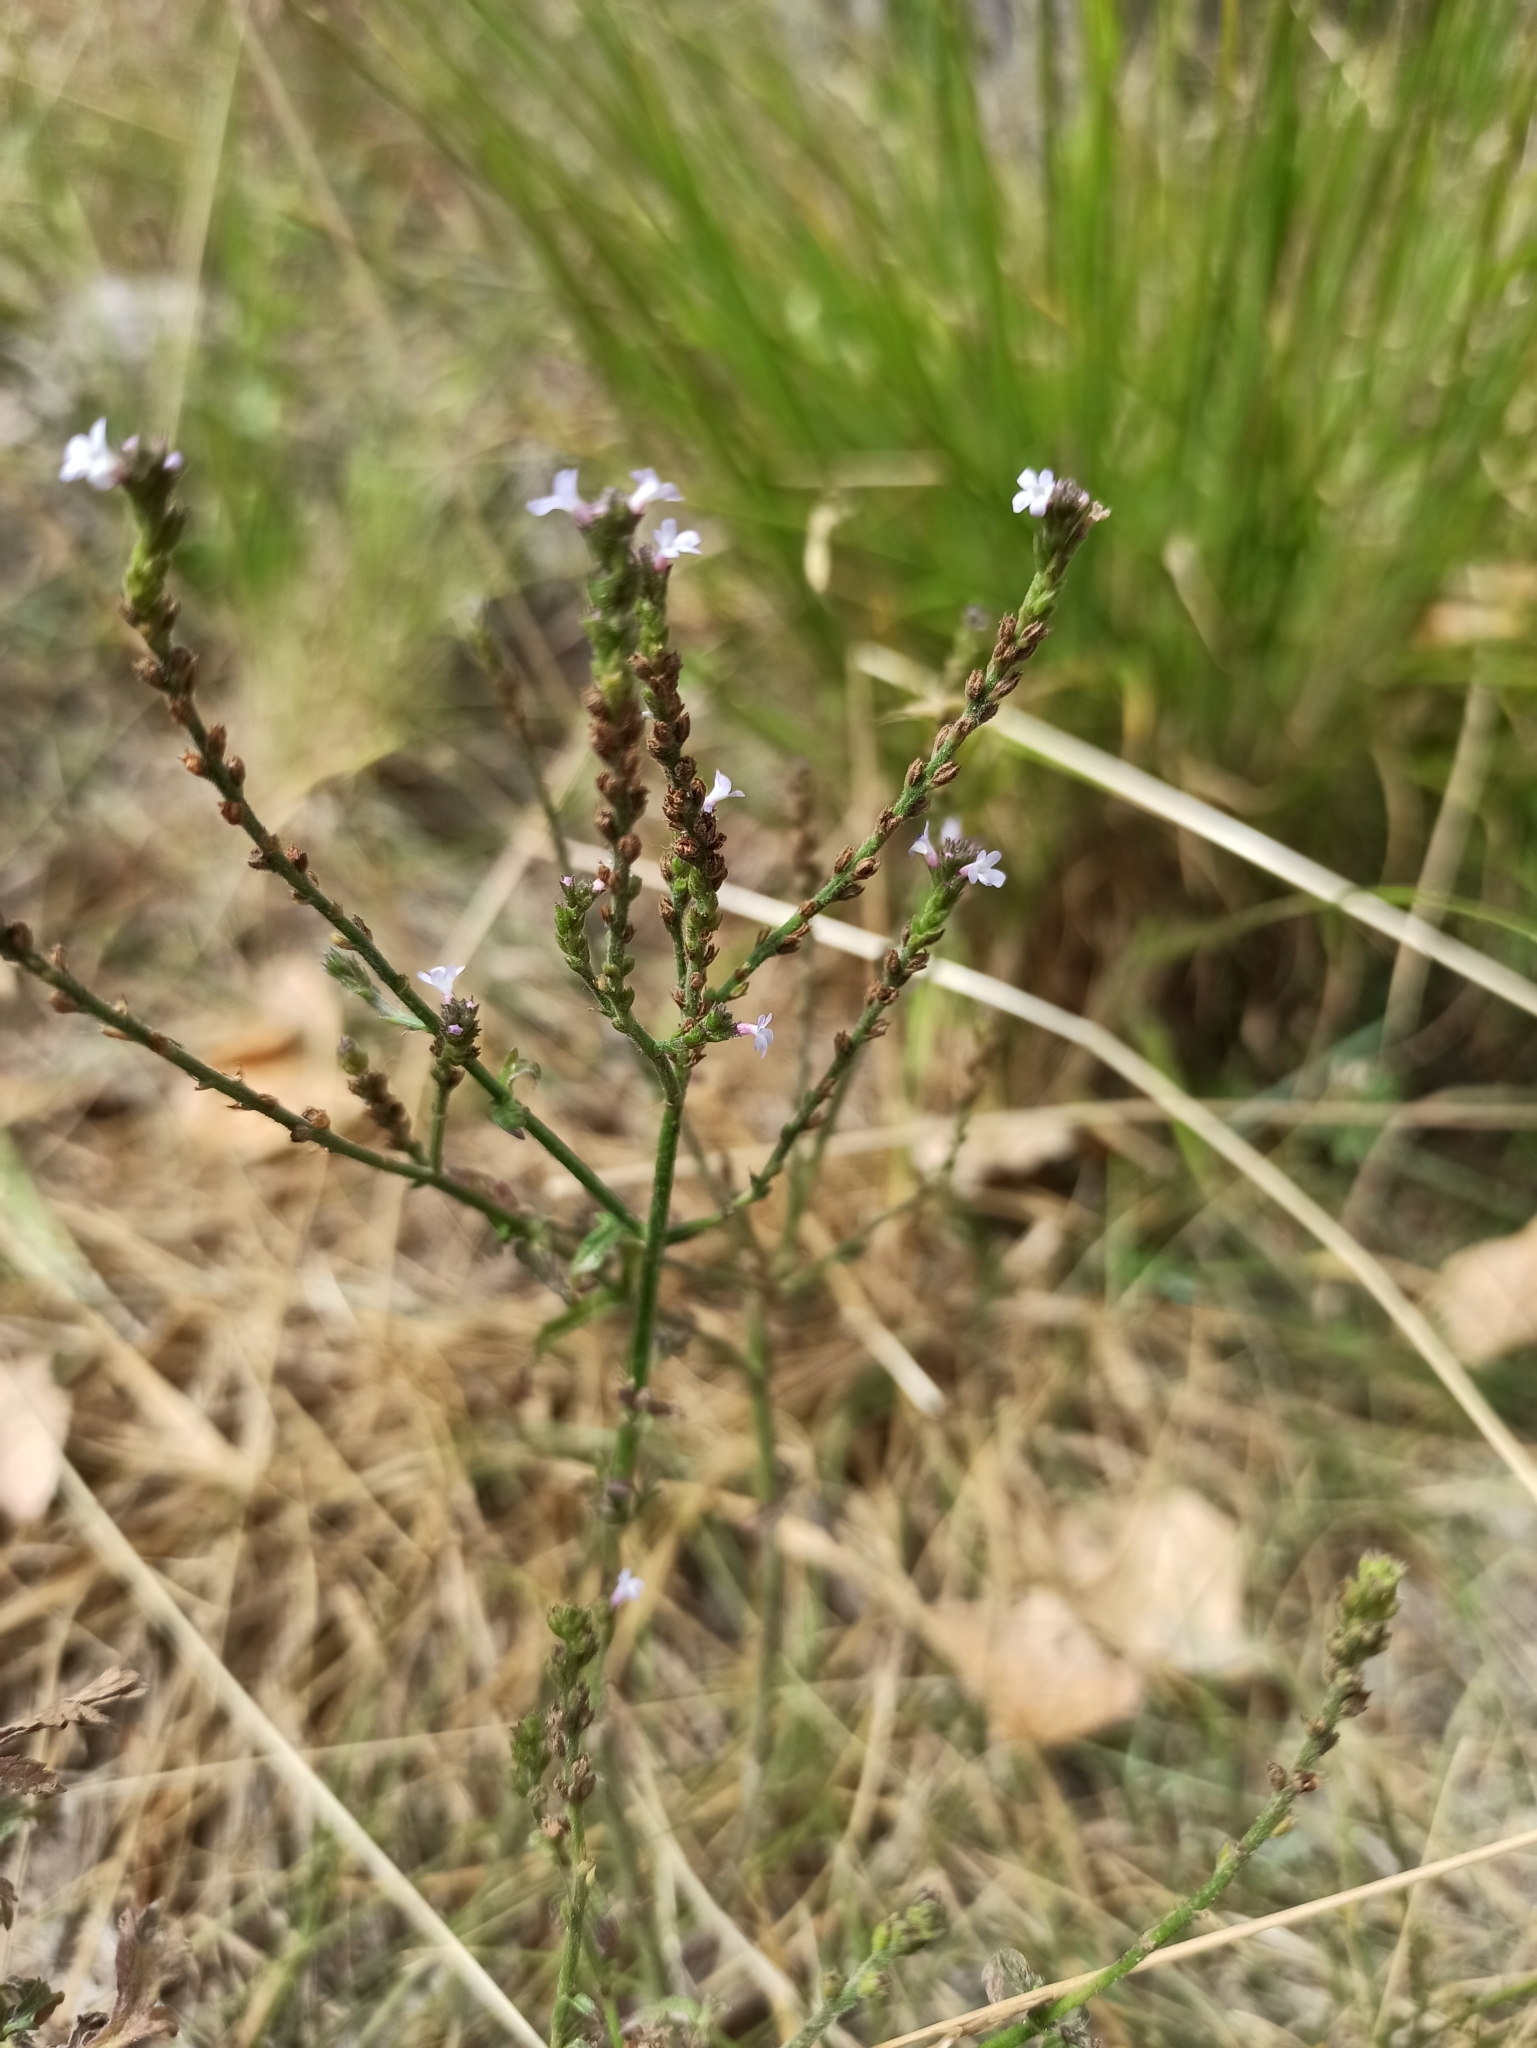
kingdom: Plantae
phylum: Tracheophyta
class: Magnoliopsida
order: Lamiales
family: Verbenaceae
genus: Verbena
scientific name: Verbena officinalis
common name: Vervain
